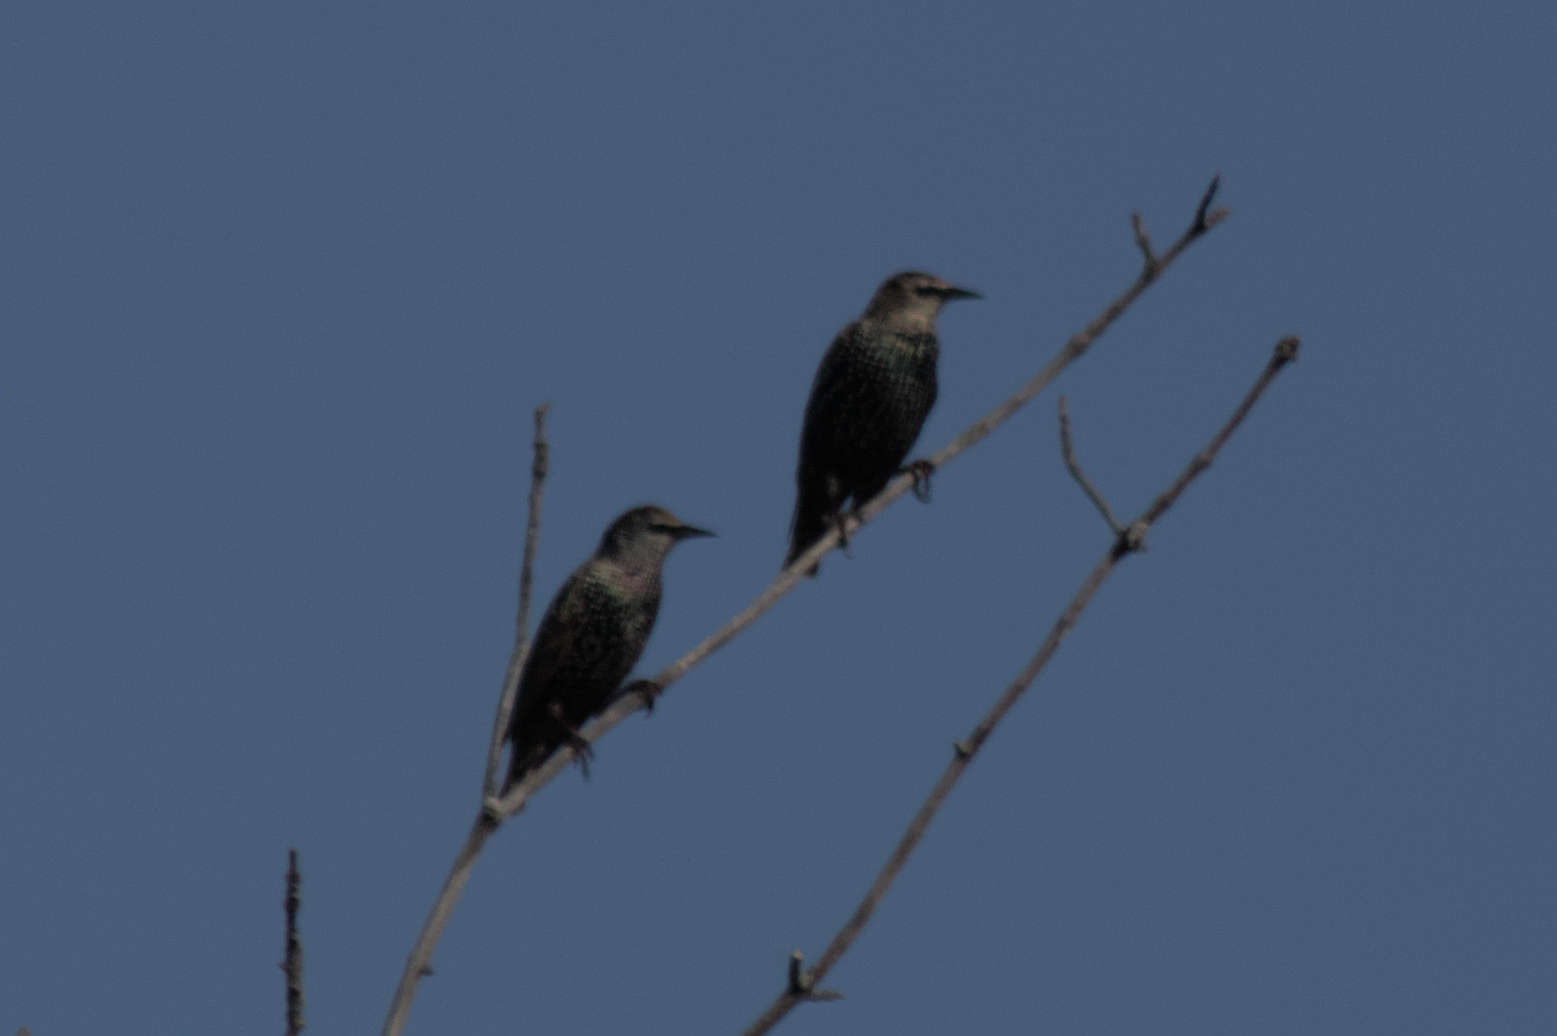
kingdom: Animalia
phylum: Chordata
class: Aves
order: Passeriformes
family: Sturnidae
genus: Sturnus
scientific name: Sturnus vulgaris
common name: Common starling
